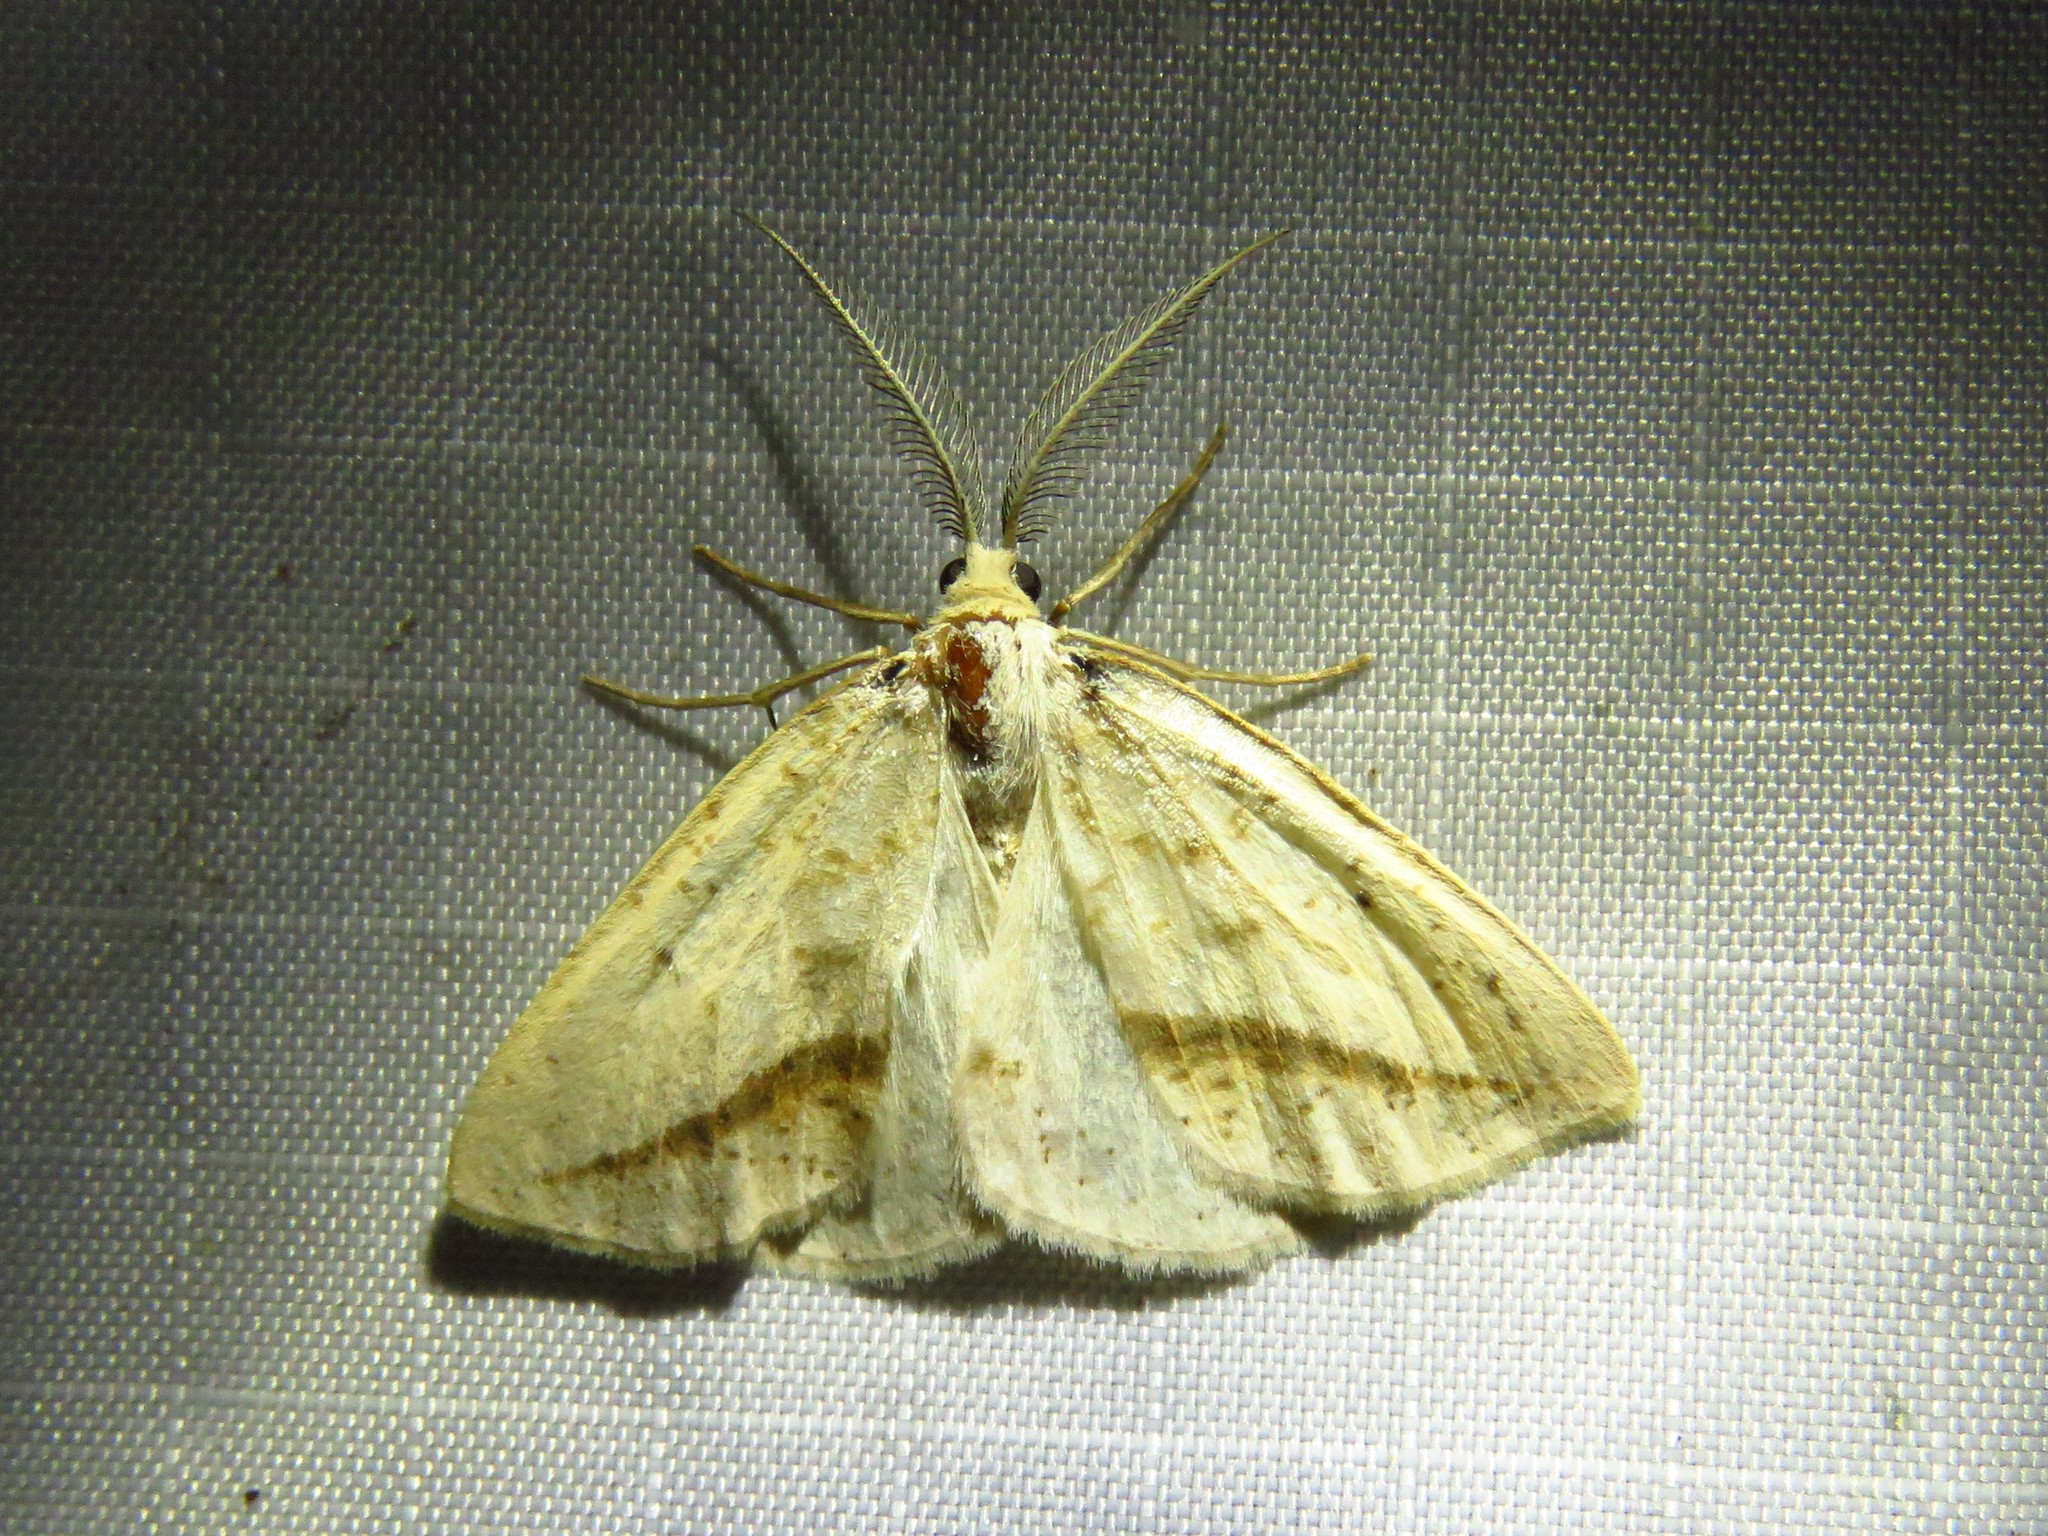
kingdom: Animalia
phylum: Arthropoda
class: Insecta
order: Lepidoptera
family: Geometridae
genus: Lychnosea
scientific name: Lychnosea intermicata
